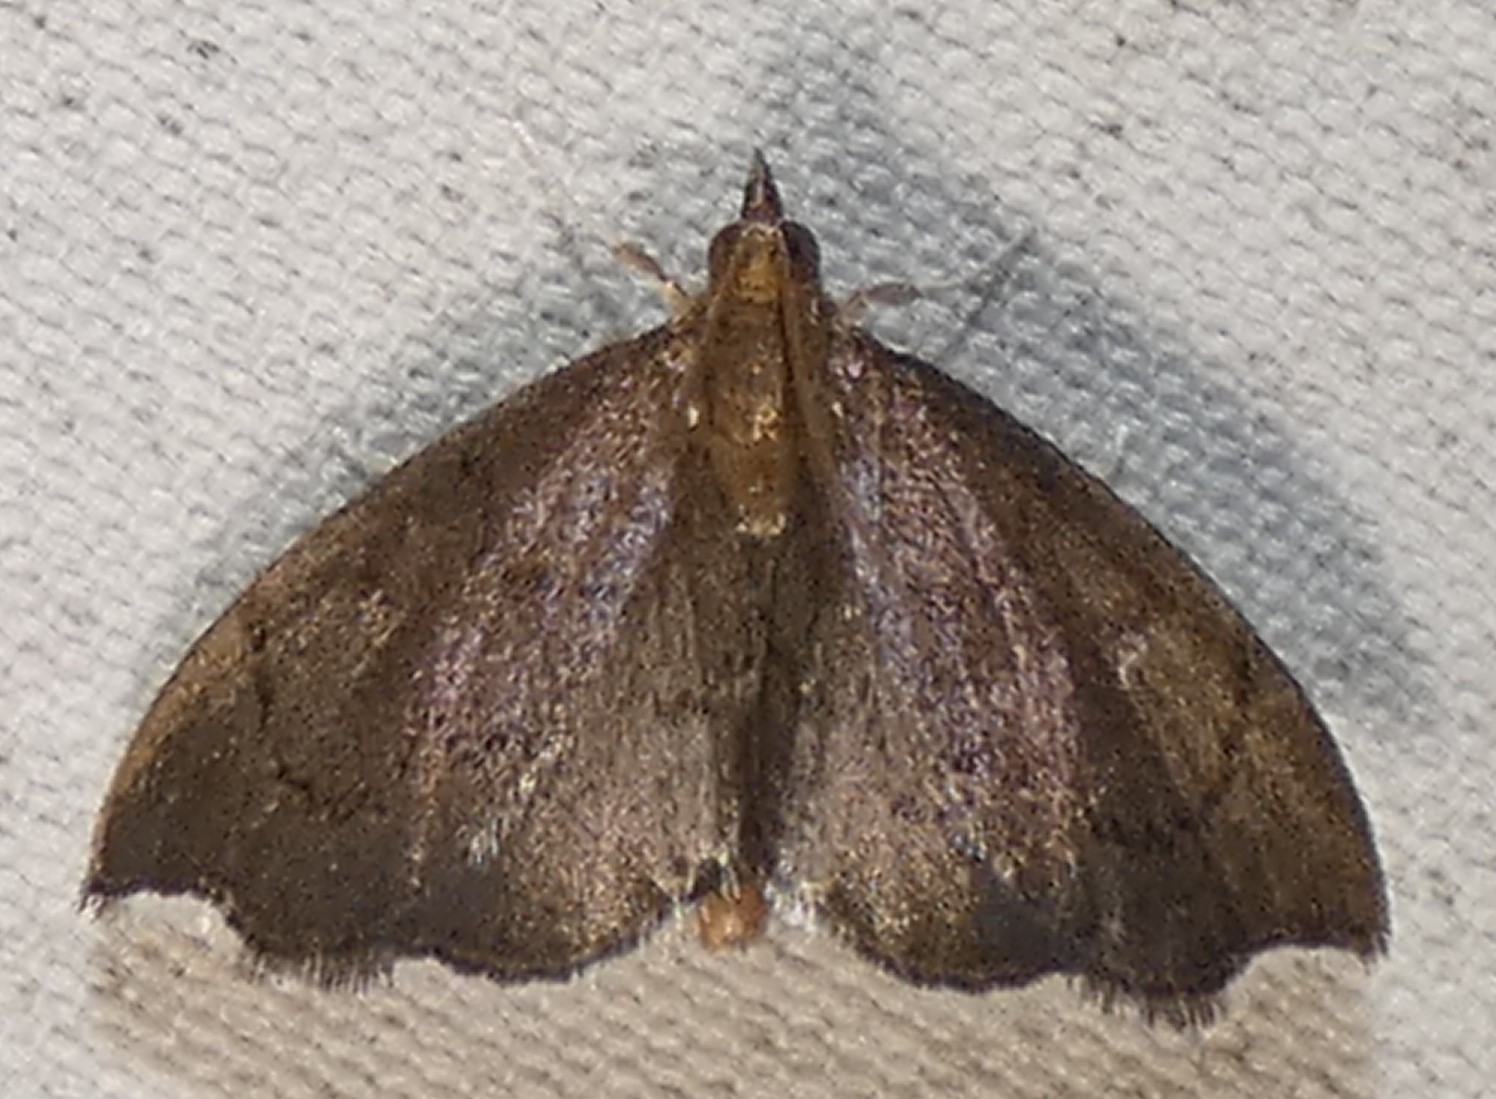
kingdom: Animalia
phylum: Arthropoda
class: Insecta
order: Lepidoptera
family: Crambidae
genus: Perispasta
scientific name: Perispasta caeculalis
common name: Titian peale's moth
